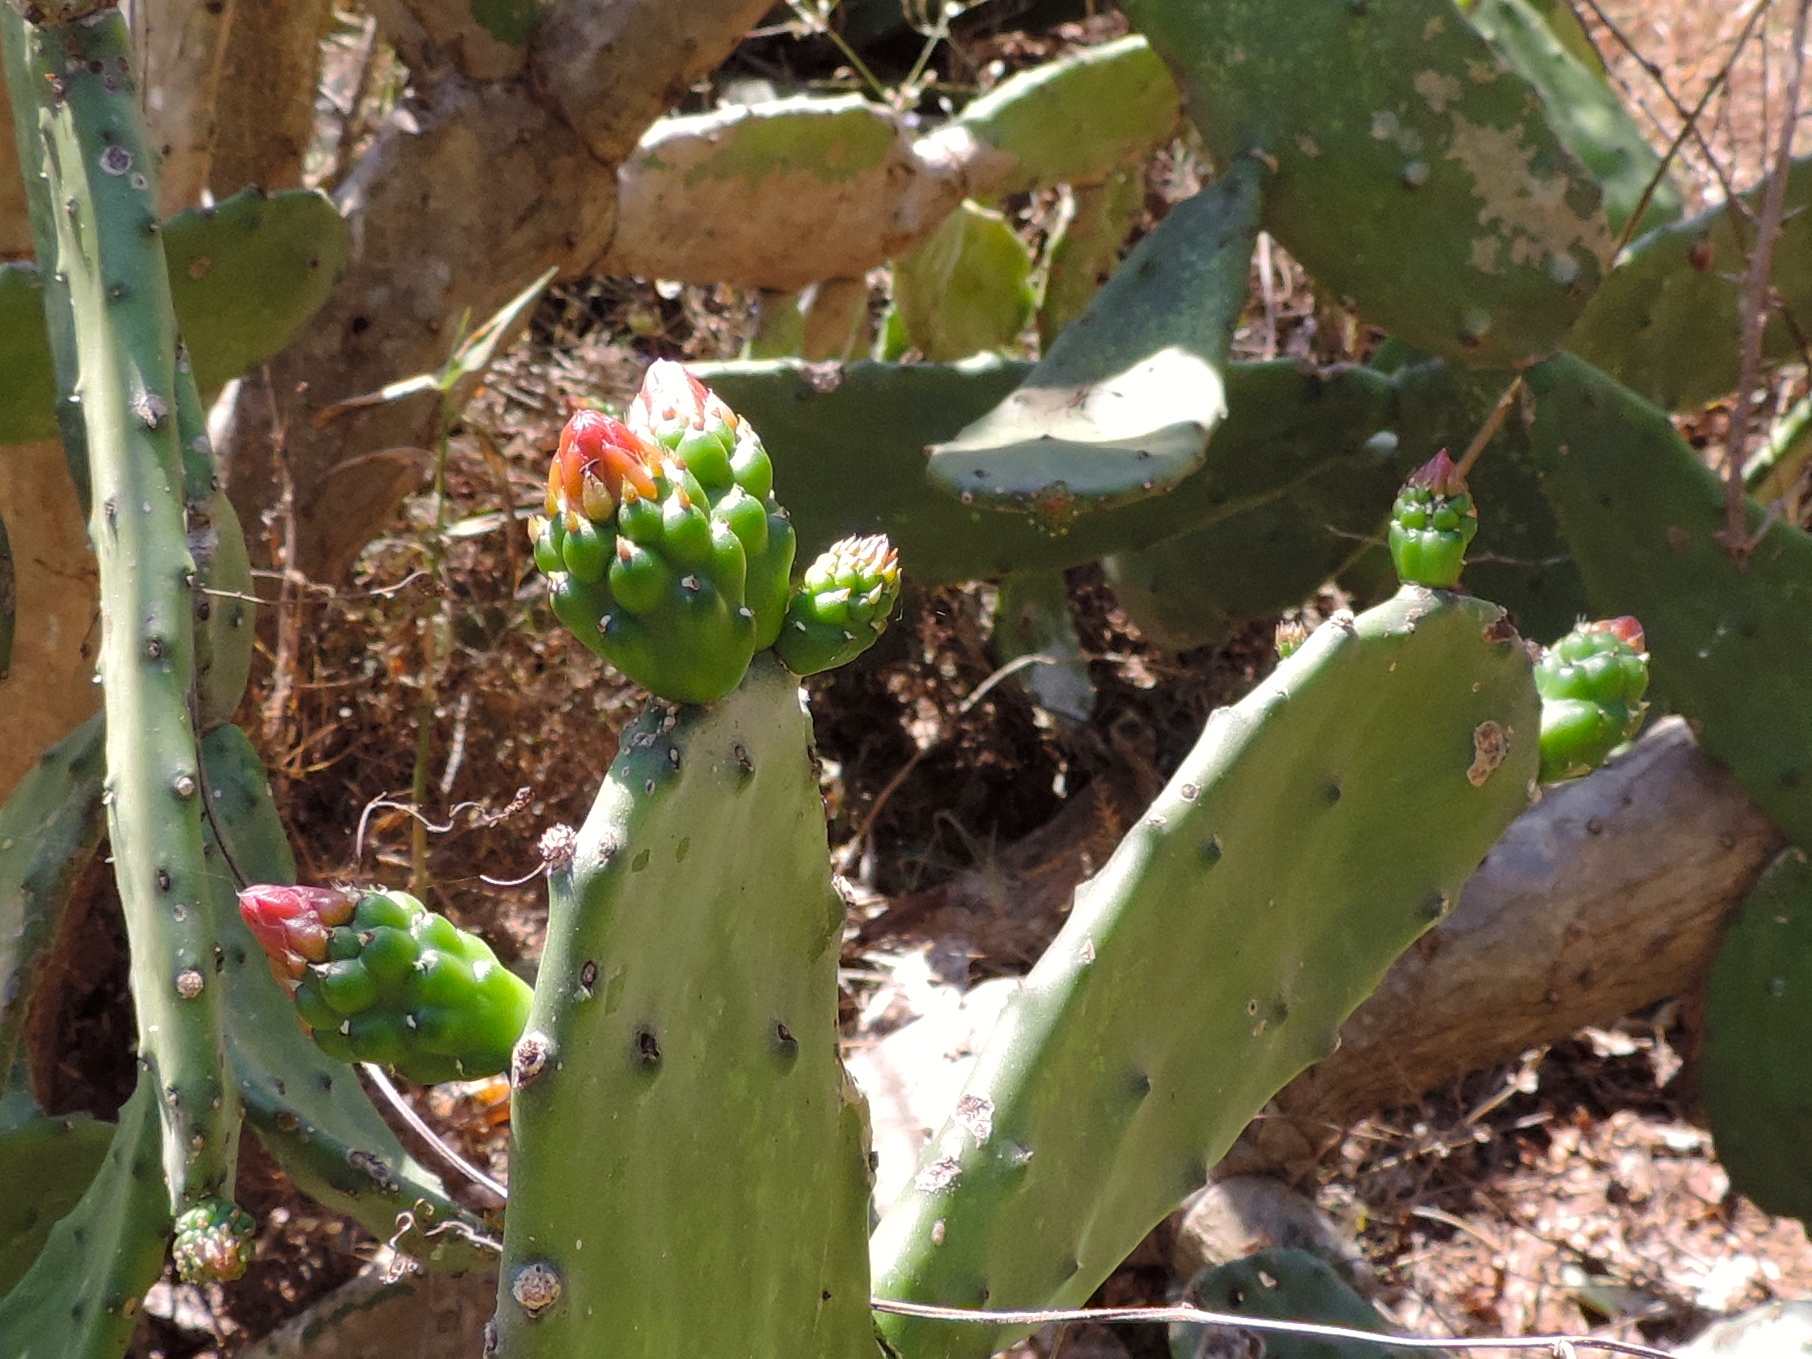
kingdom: Plantae
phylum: Tracheophyta
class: Magnoliopsida
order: Caryophyllales
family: Cactaceae
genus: Opuntia
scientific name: Opuntia cochenillifera
